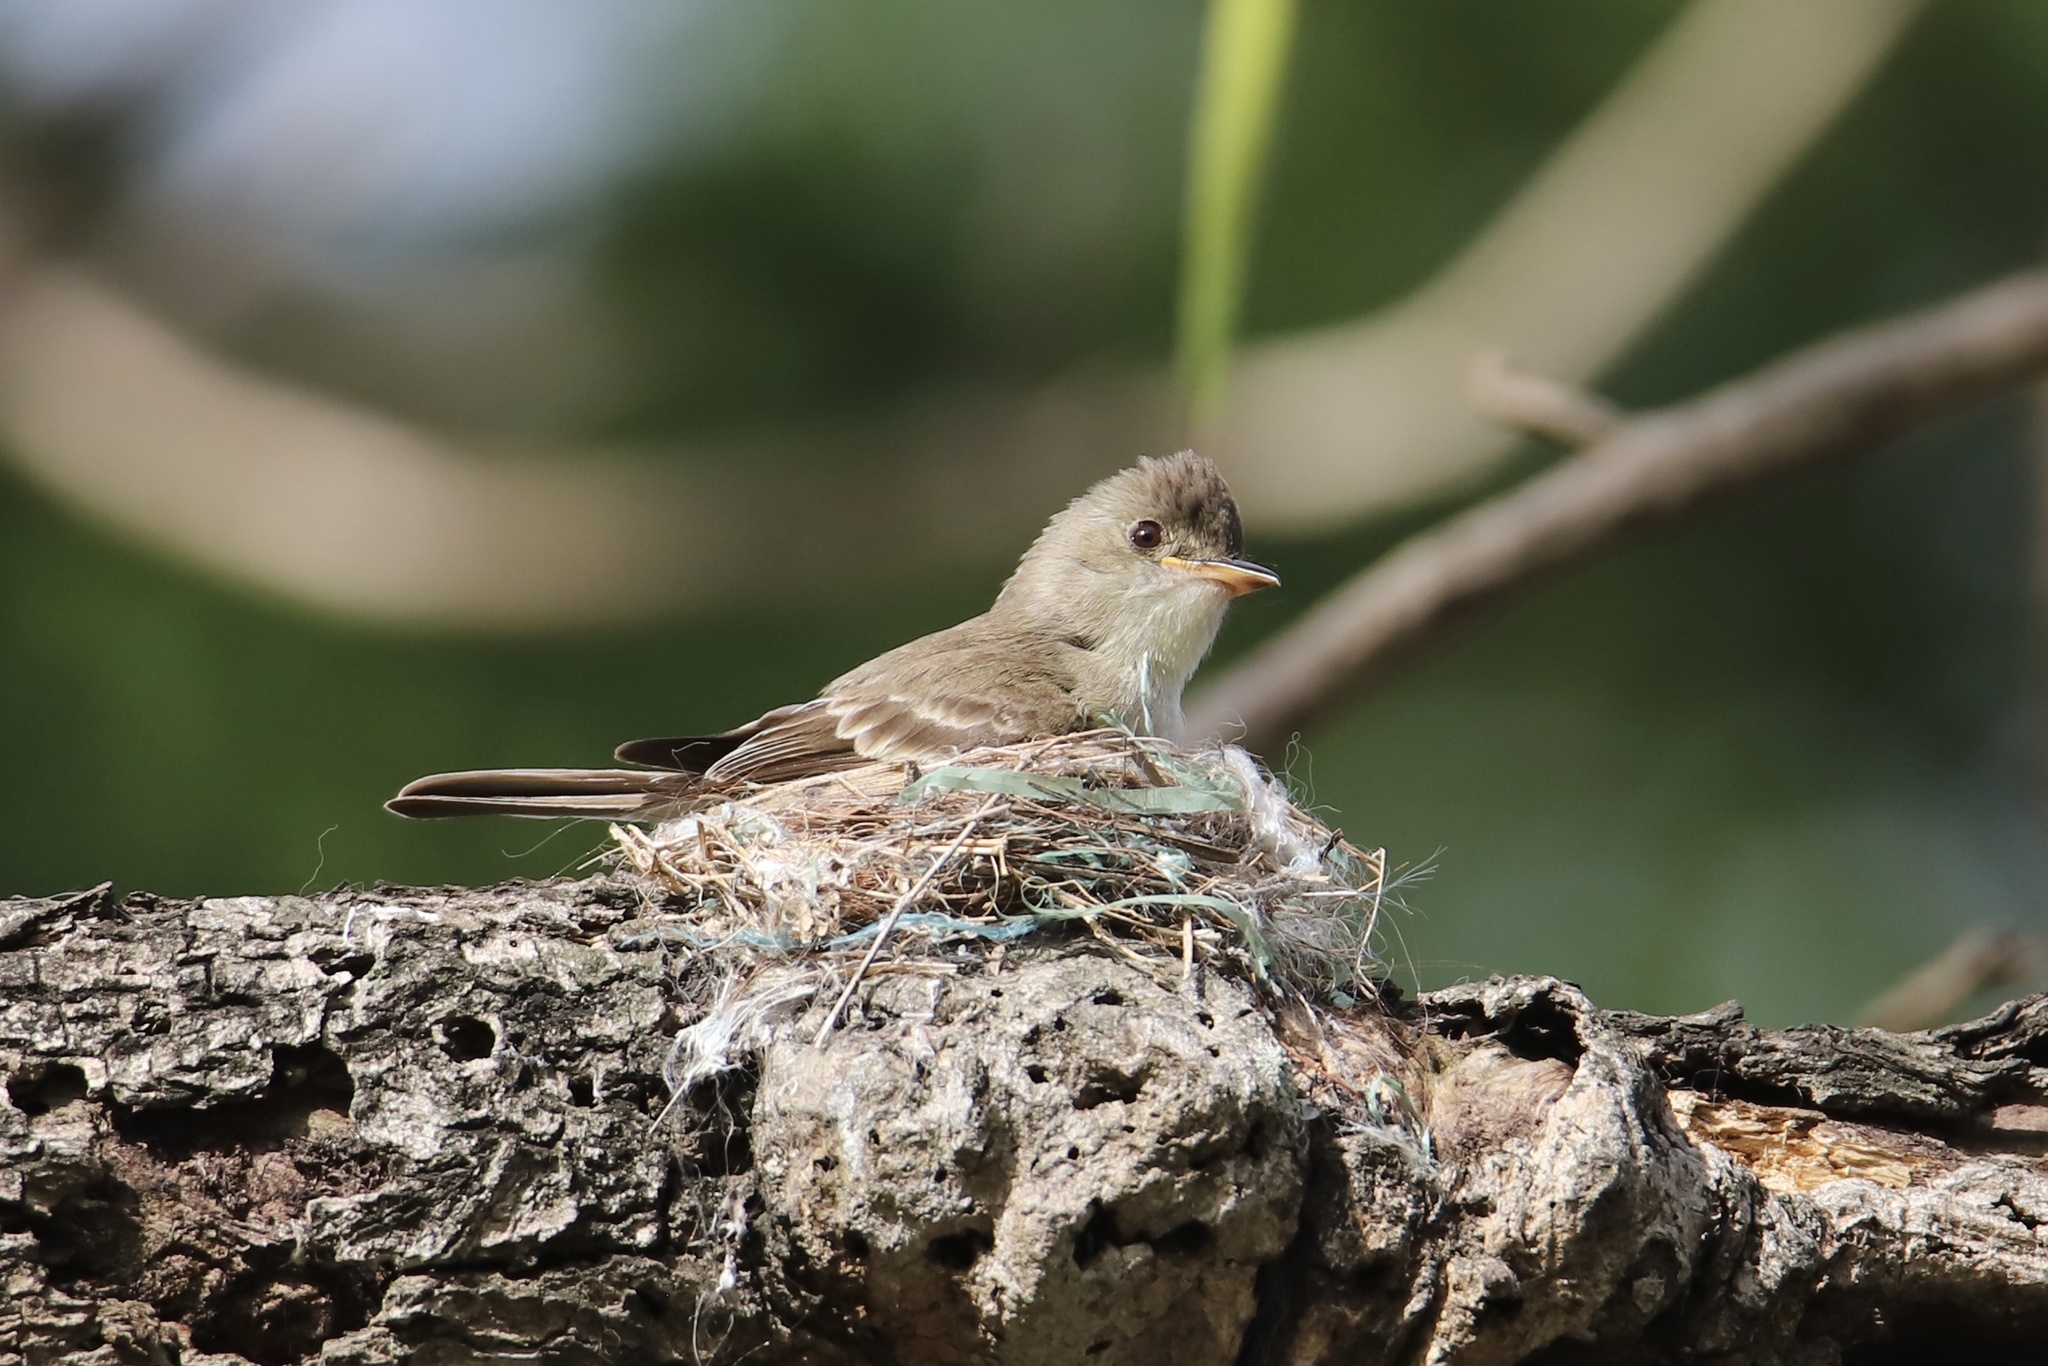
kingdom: Animalia
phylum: Chordata
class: Aves
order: Passeriformes
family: Tyrannidae
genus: Contopus
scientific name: Contopus cinereus
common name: Tropical pewee
